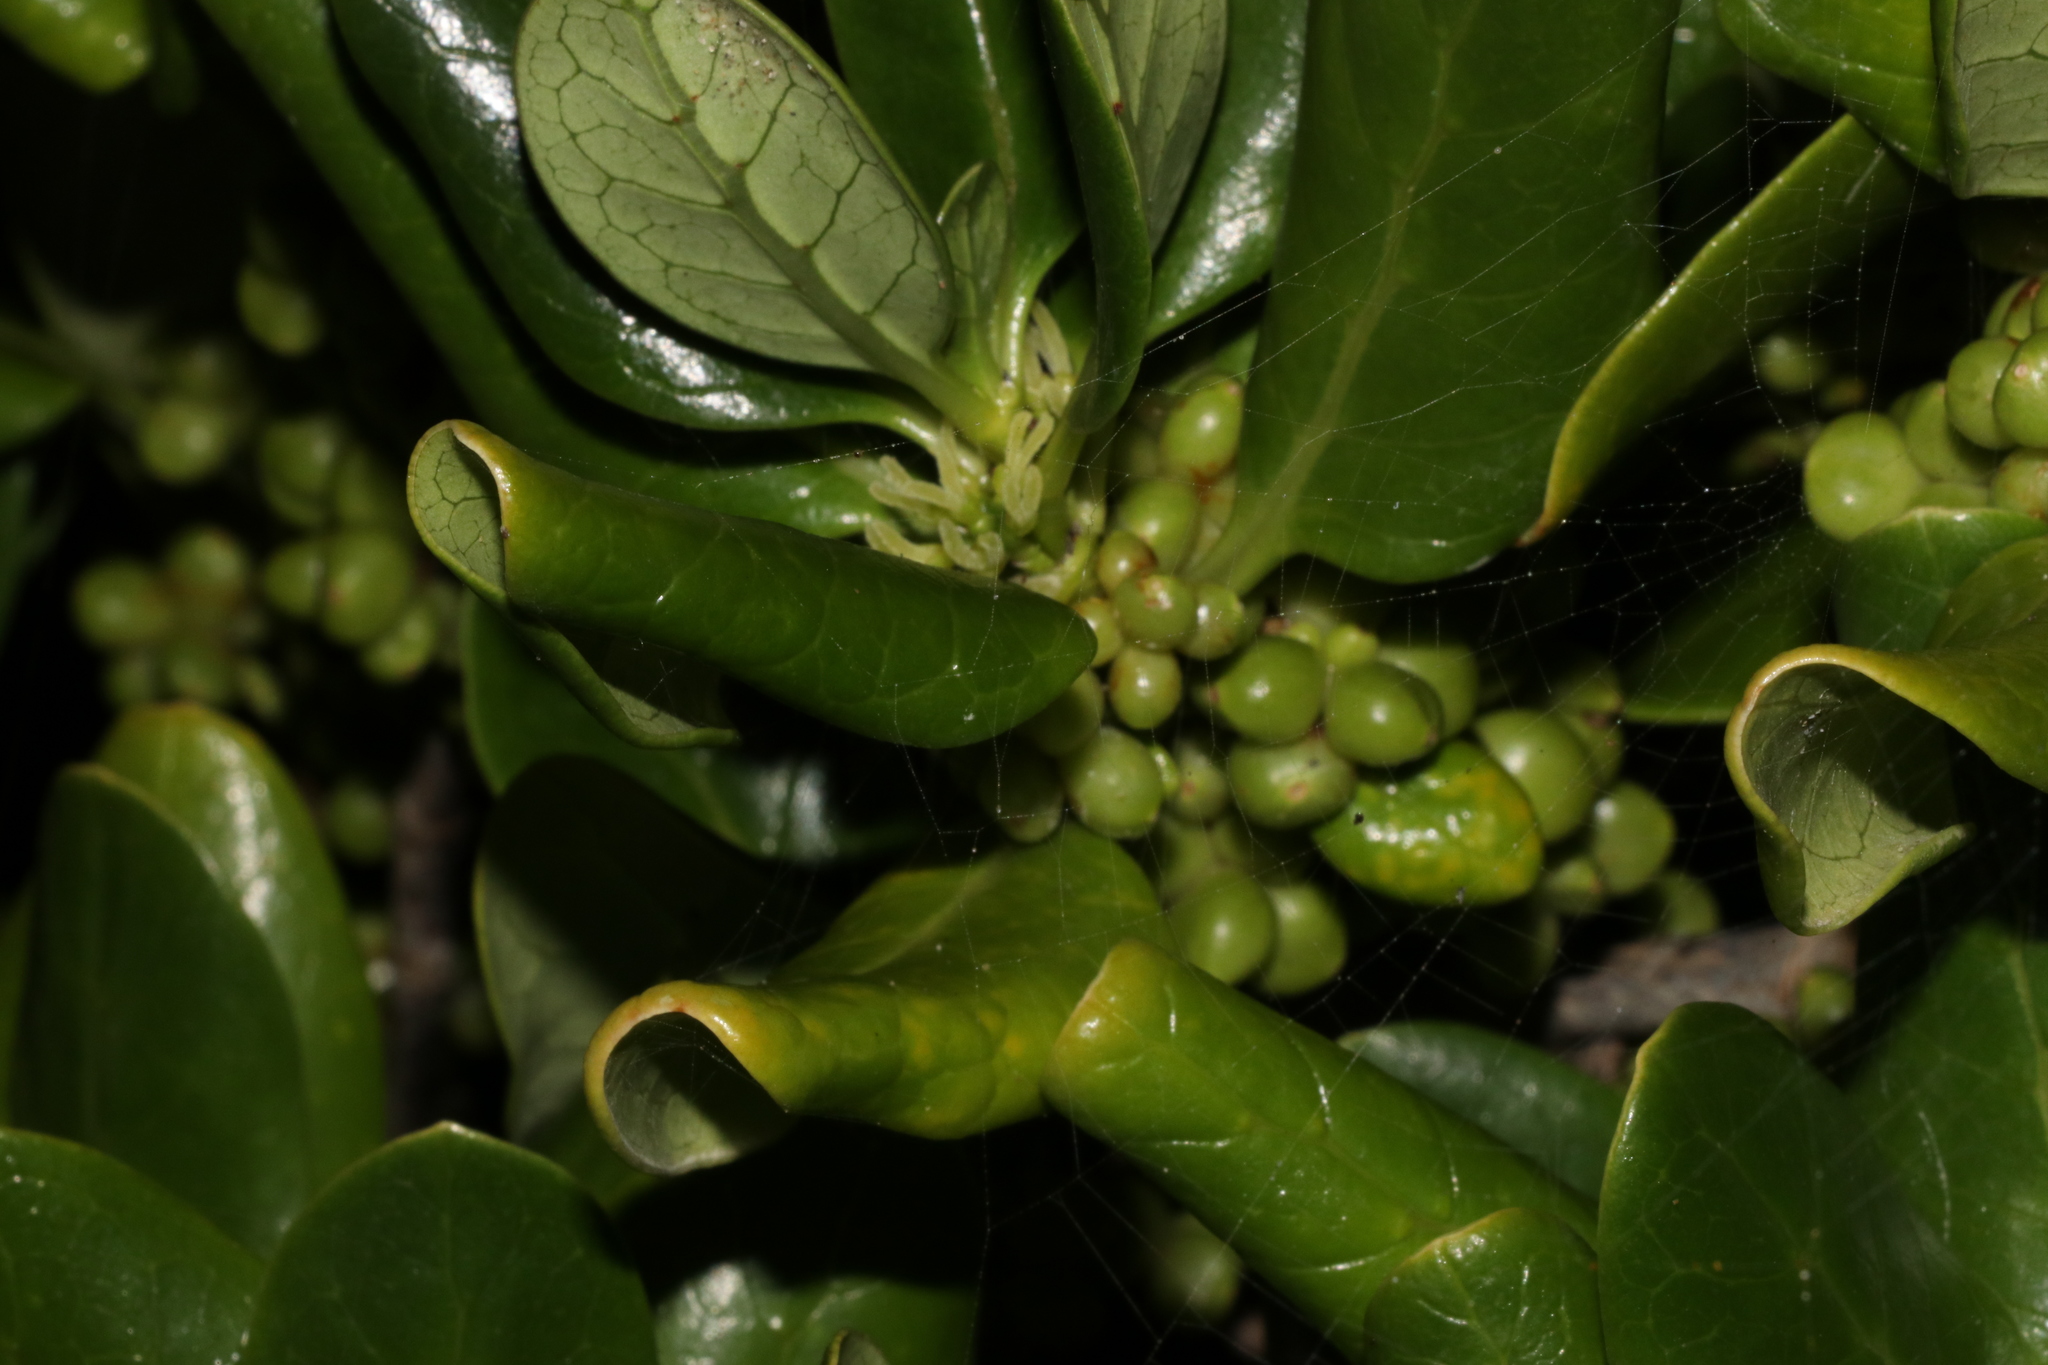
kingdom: Plantae
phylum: Tracheophyta
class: Magnoliopsida
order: Gentianales
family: Rubiaceae
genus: Coprosma
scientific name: Coprosma repens
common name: Tree bedstraw
